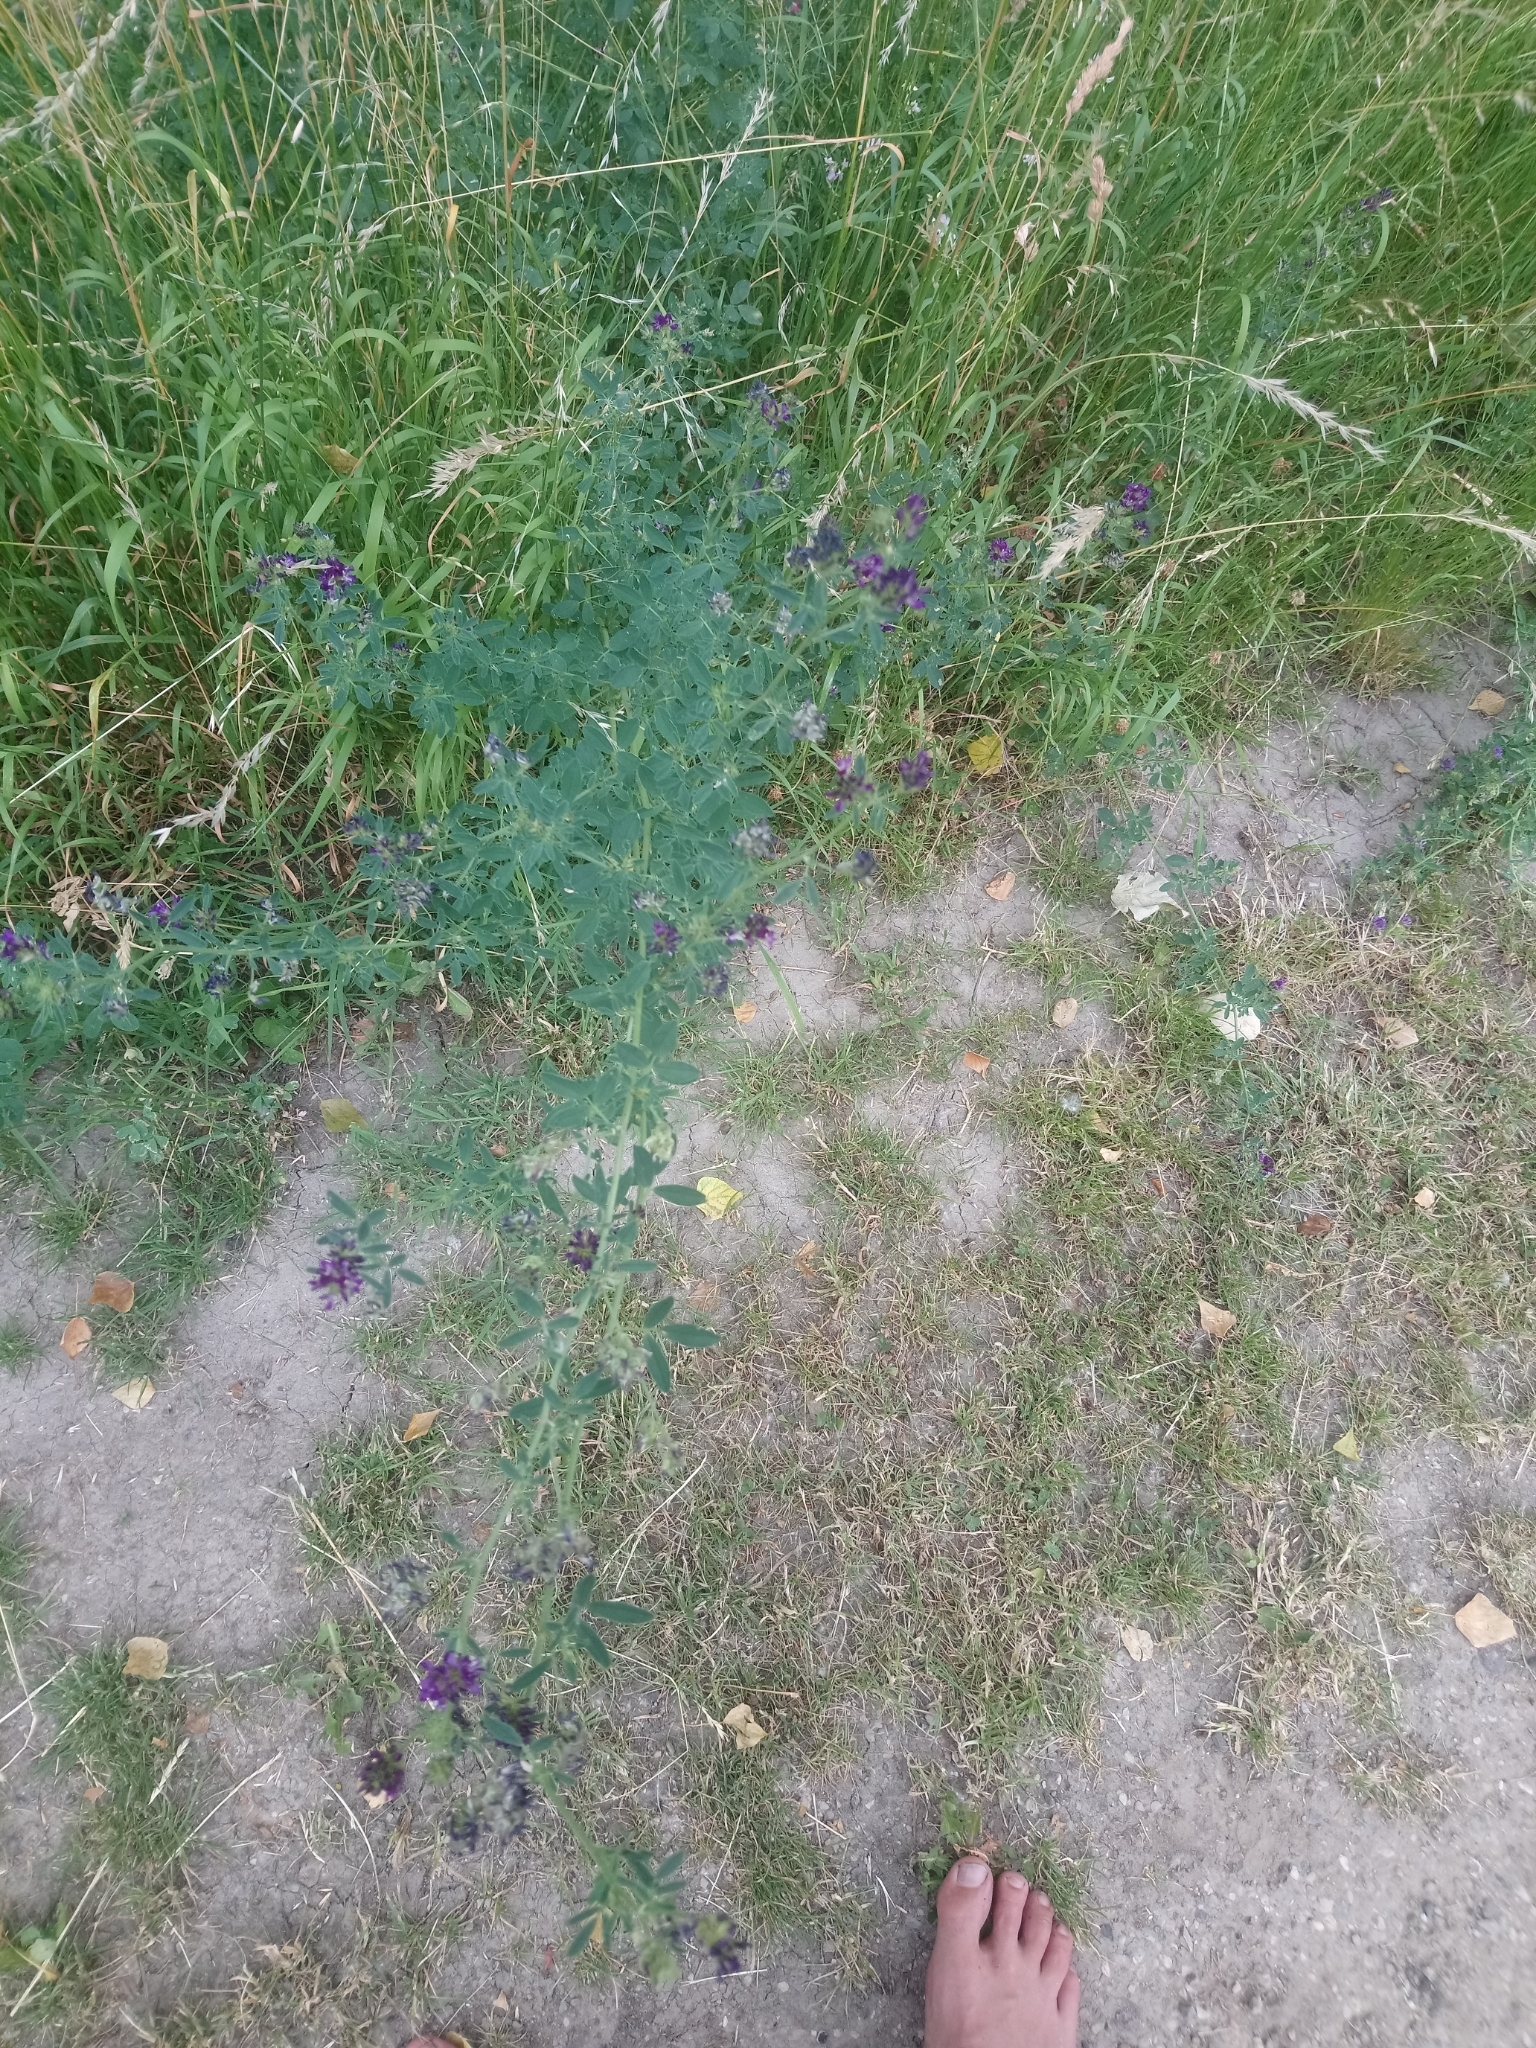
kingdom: Plantae
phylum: Tracheophyta
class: Magnoliopsida
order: Fabales
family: Fabaceae
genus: Medicago
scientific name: Medicago sativa
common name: Alfalfa
